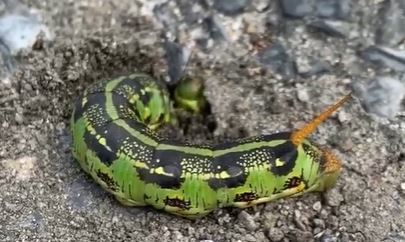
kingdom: Animalia
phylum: Arthropoda
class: Insecta
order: Lepidoptera
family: Sphingidae
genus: Hyles
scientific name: Hyles lineata
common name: White-lined sphinx
